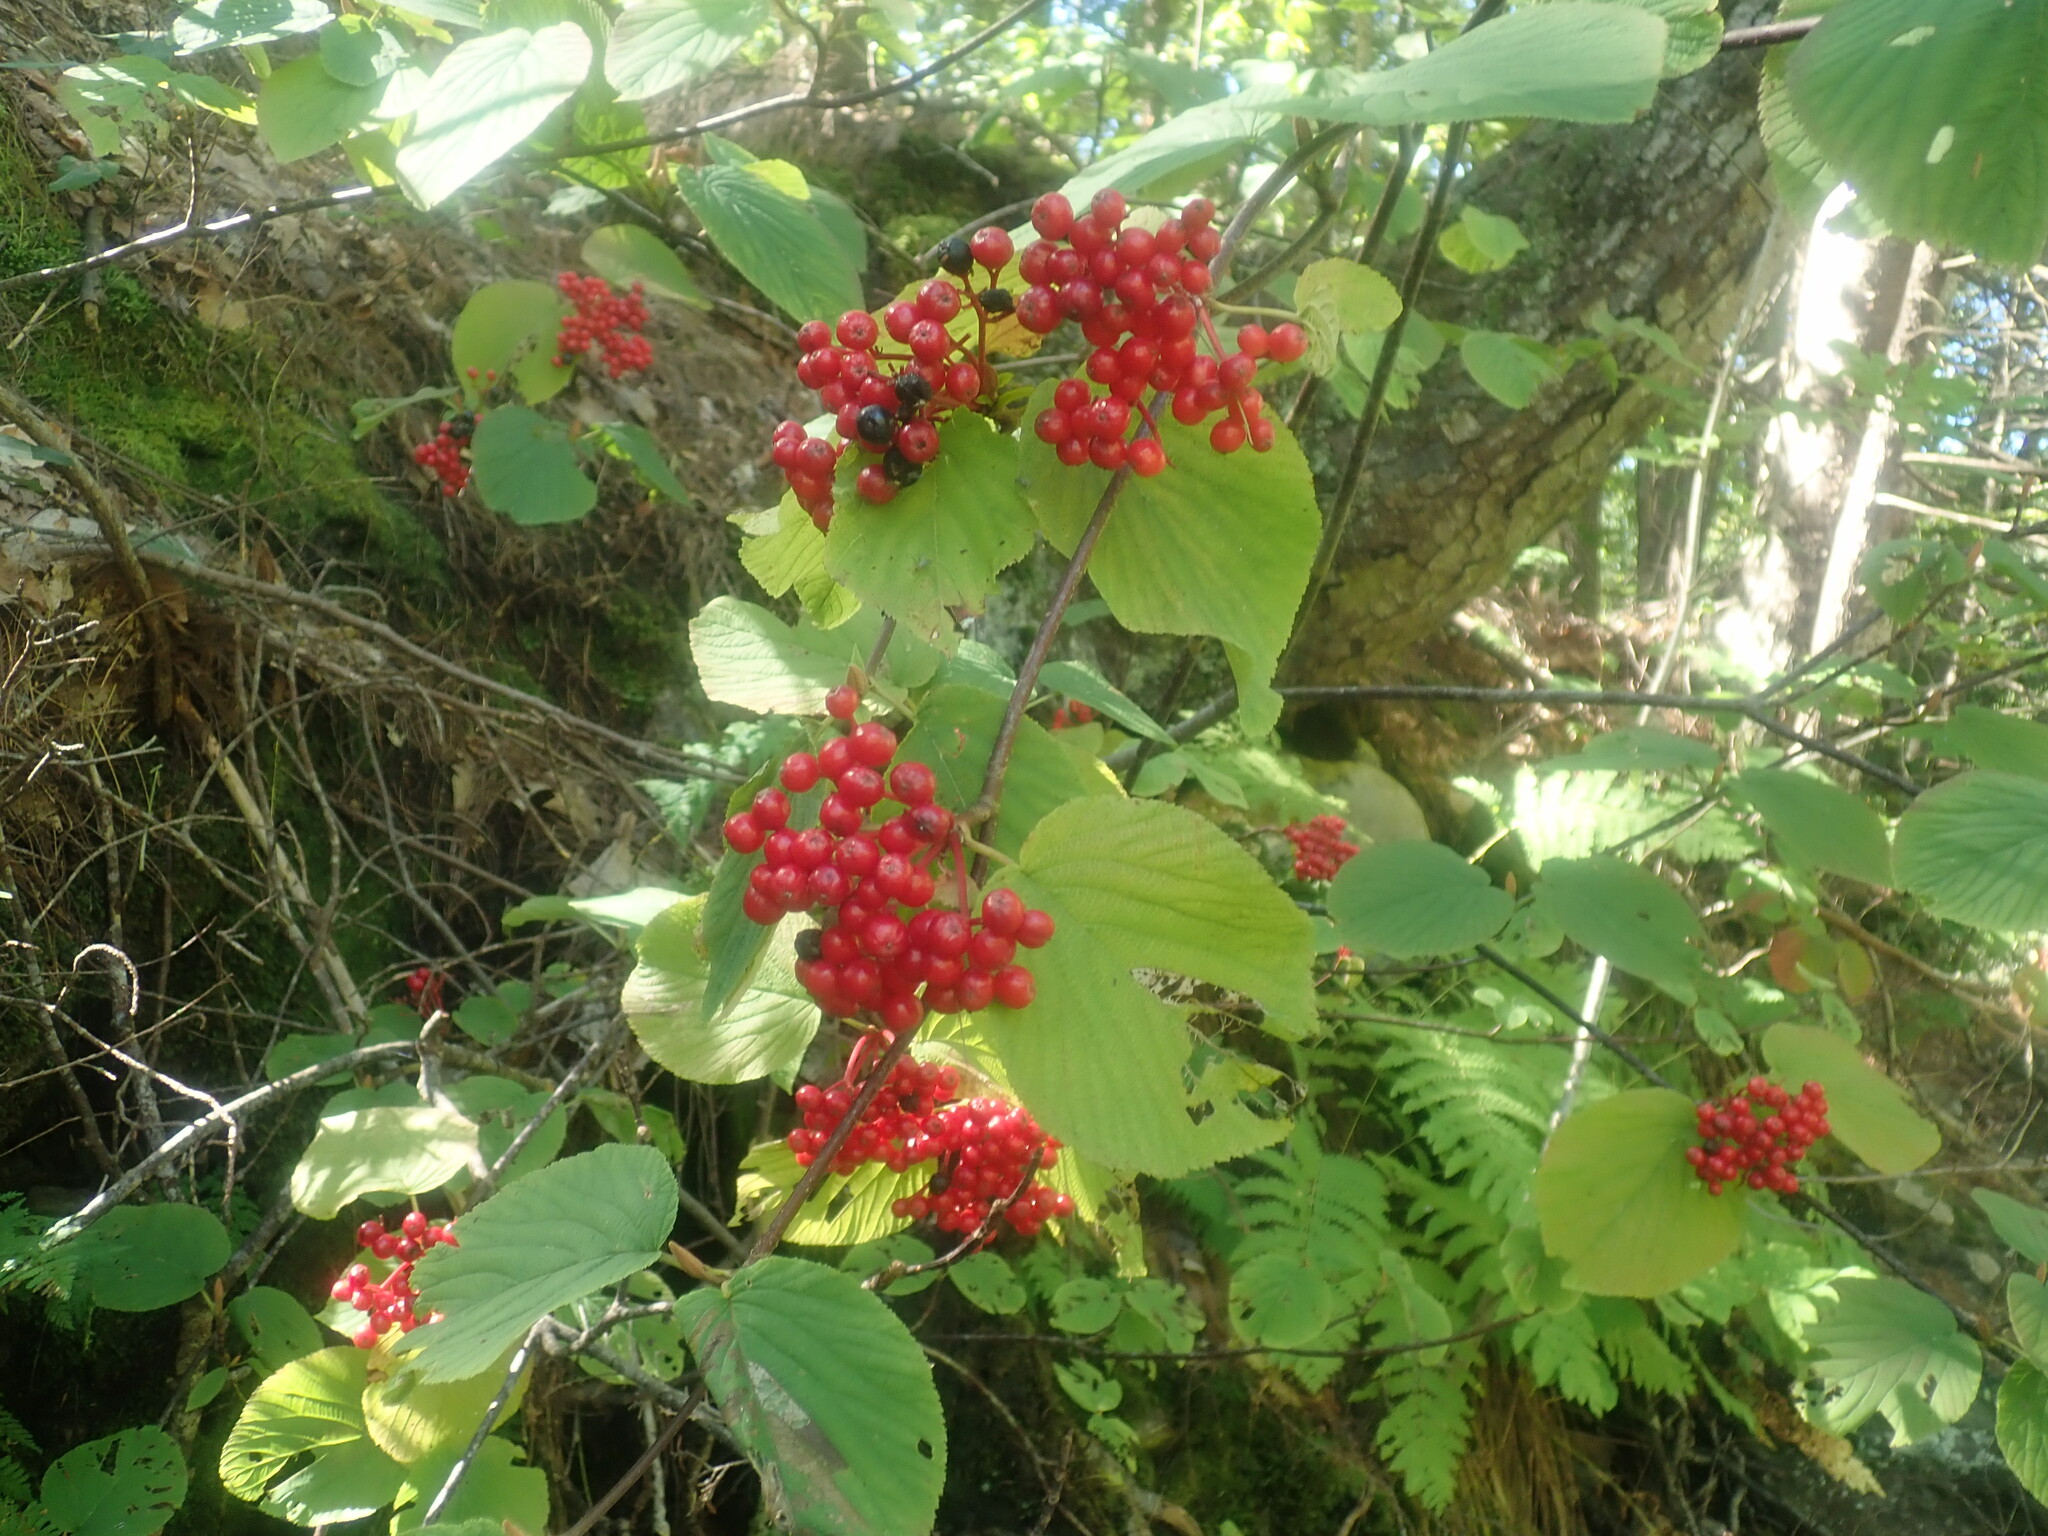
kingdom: Plantae
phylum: Tracheophyta
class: Magnoliopsida
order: Dipsacales
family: Viburnaceae
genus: Viburnum
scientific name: Viburnum lantanoides
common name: Hobblebush
